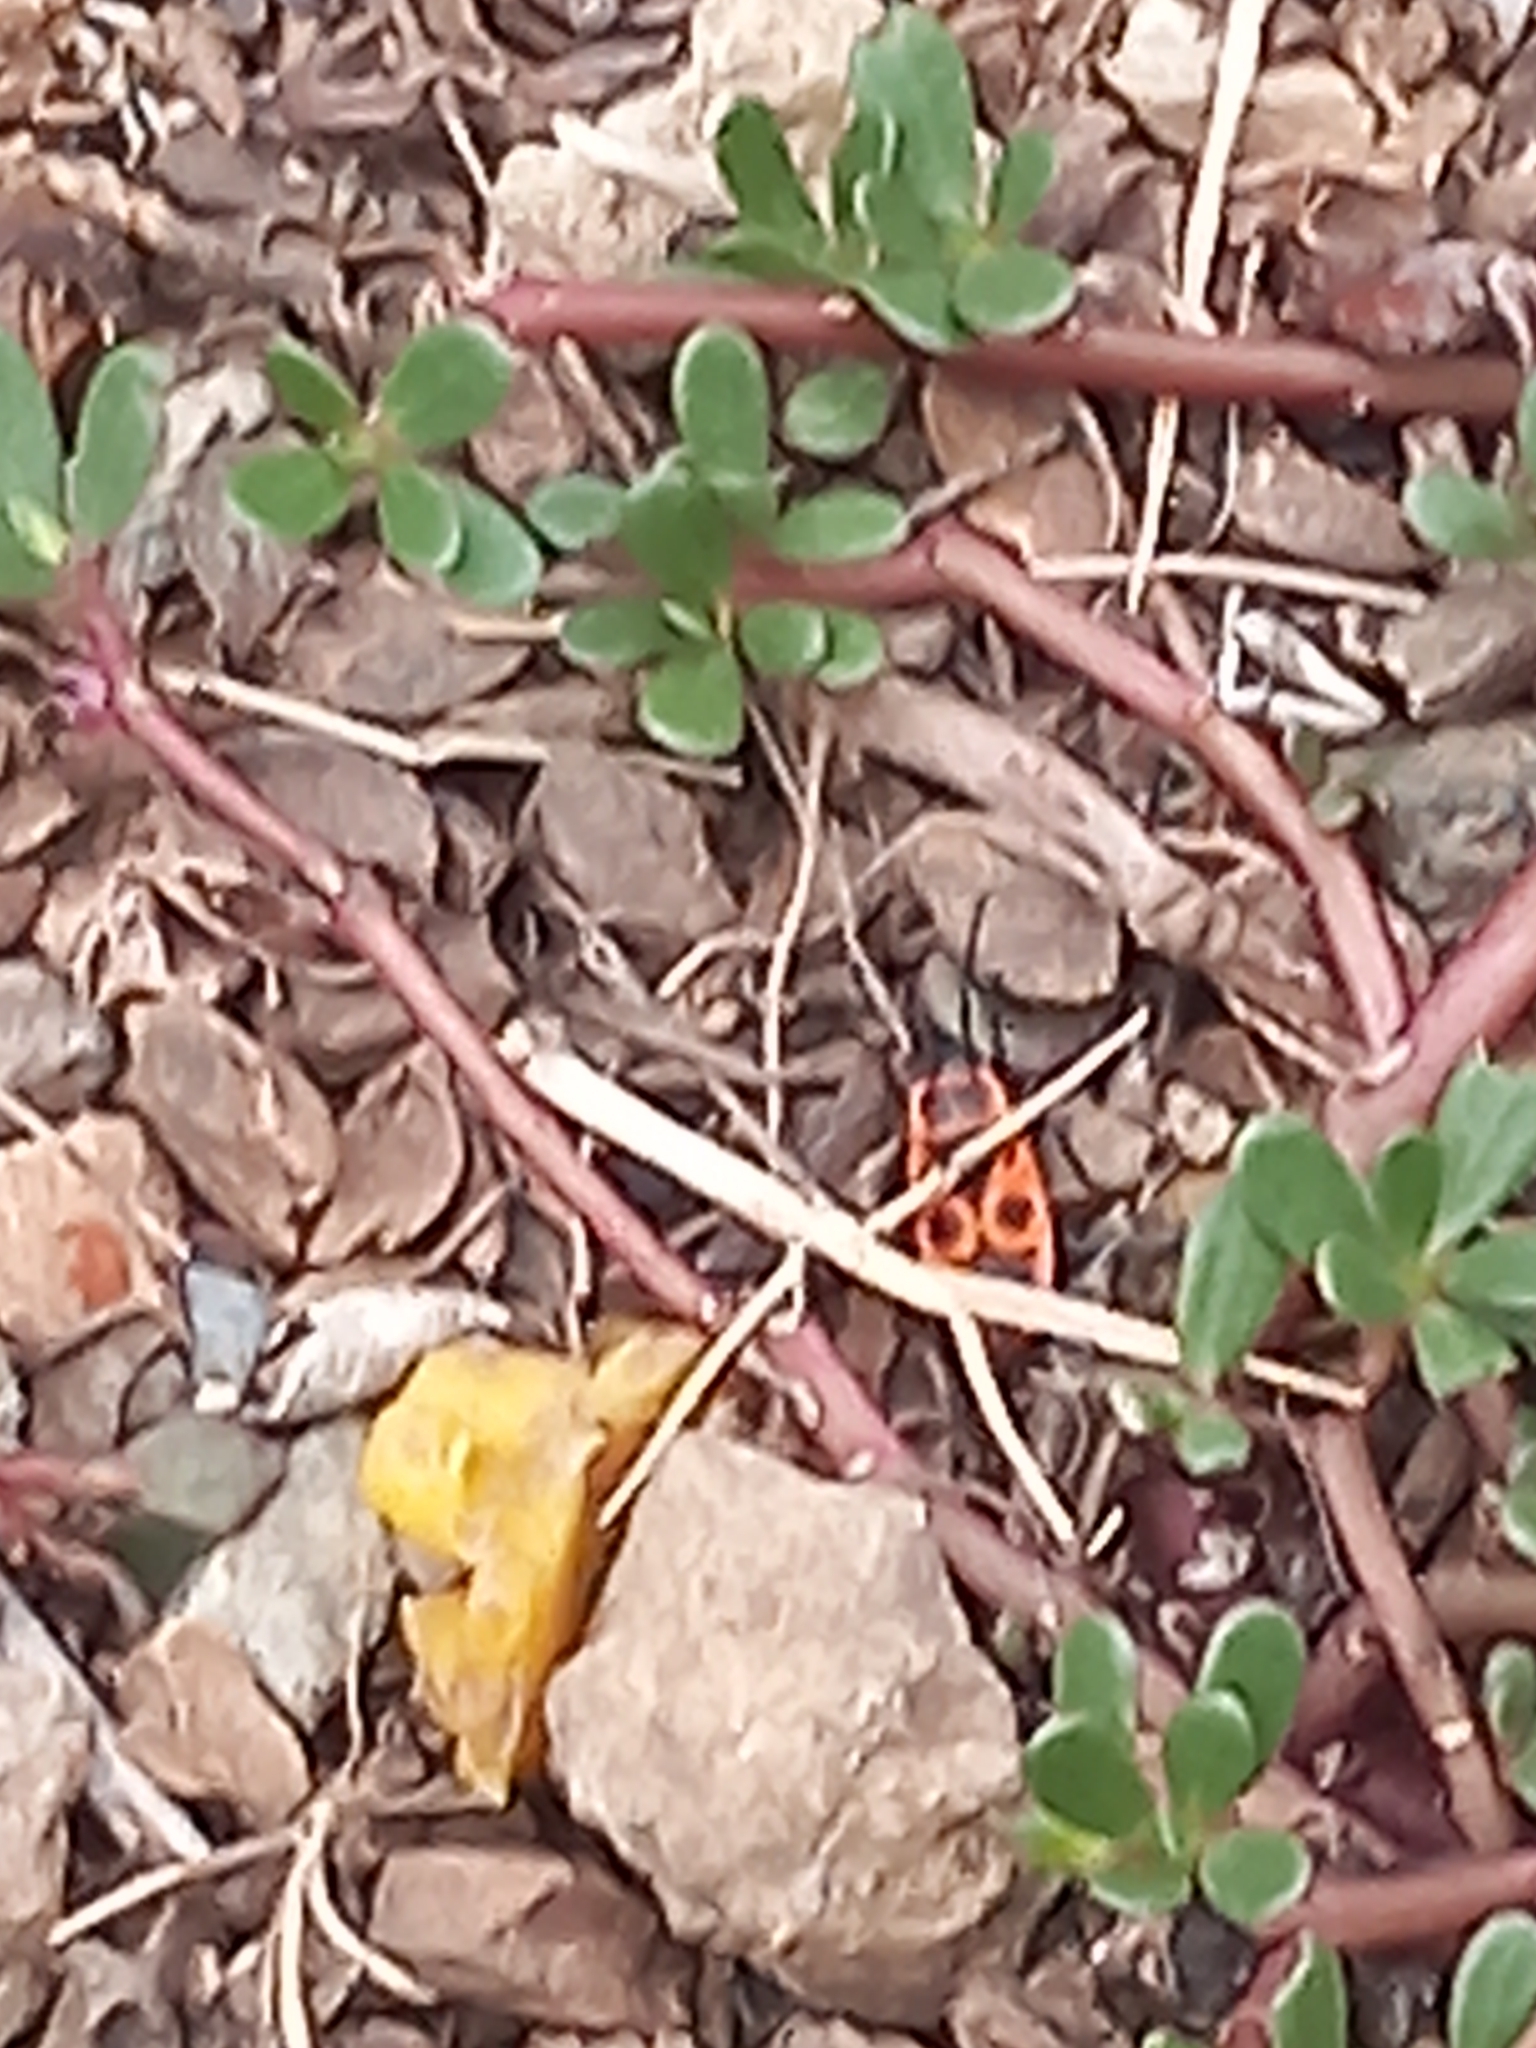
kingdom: Animalia
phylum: Arthropoda
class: Insecta
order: Hemiptera
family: Pyrrhocoridae
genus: Pyrrhocoris
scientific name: Pyrrhocoris apterus
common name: Firebug
